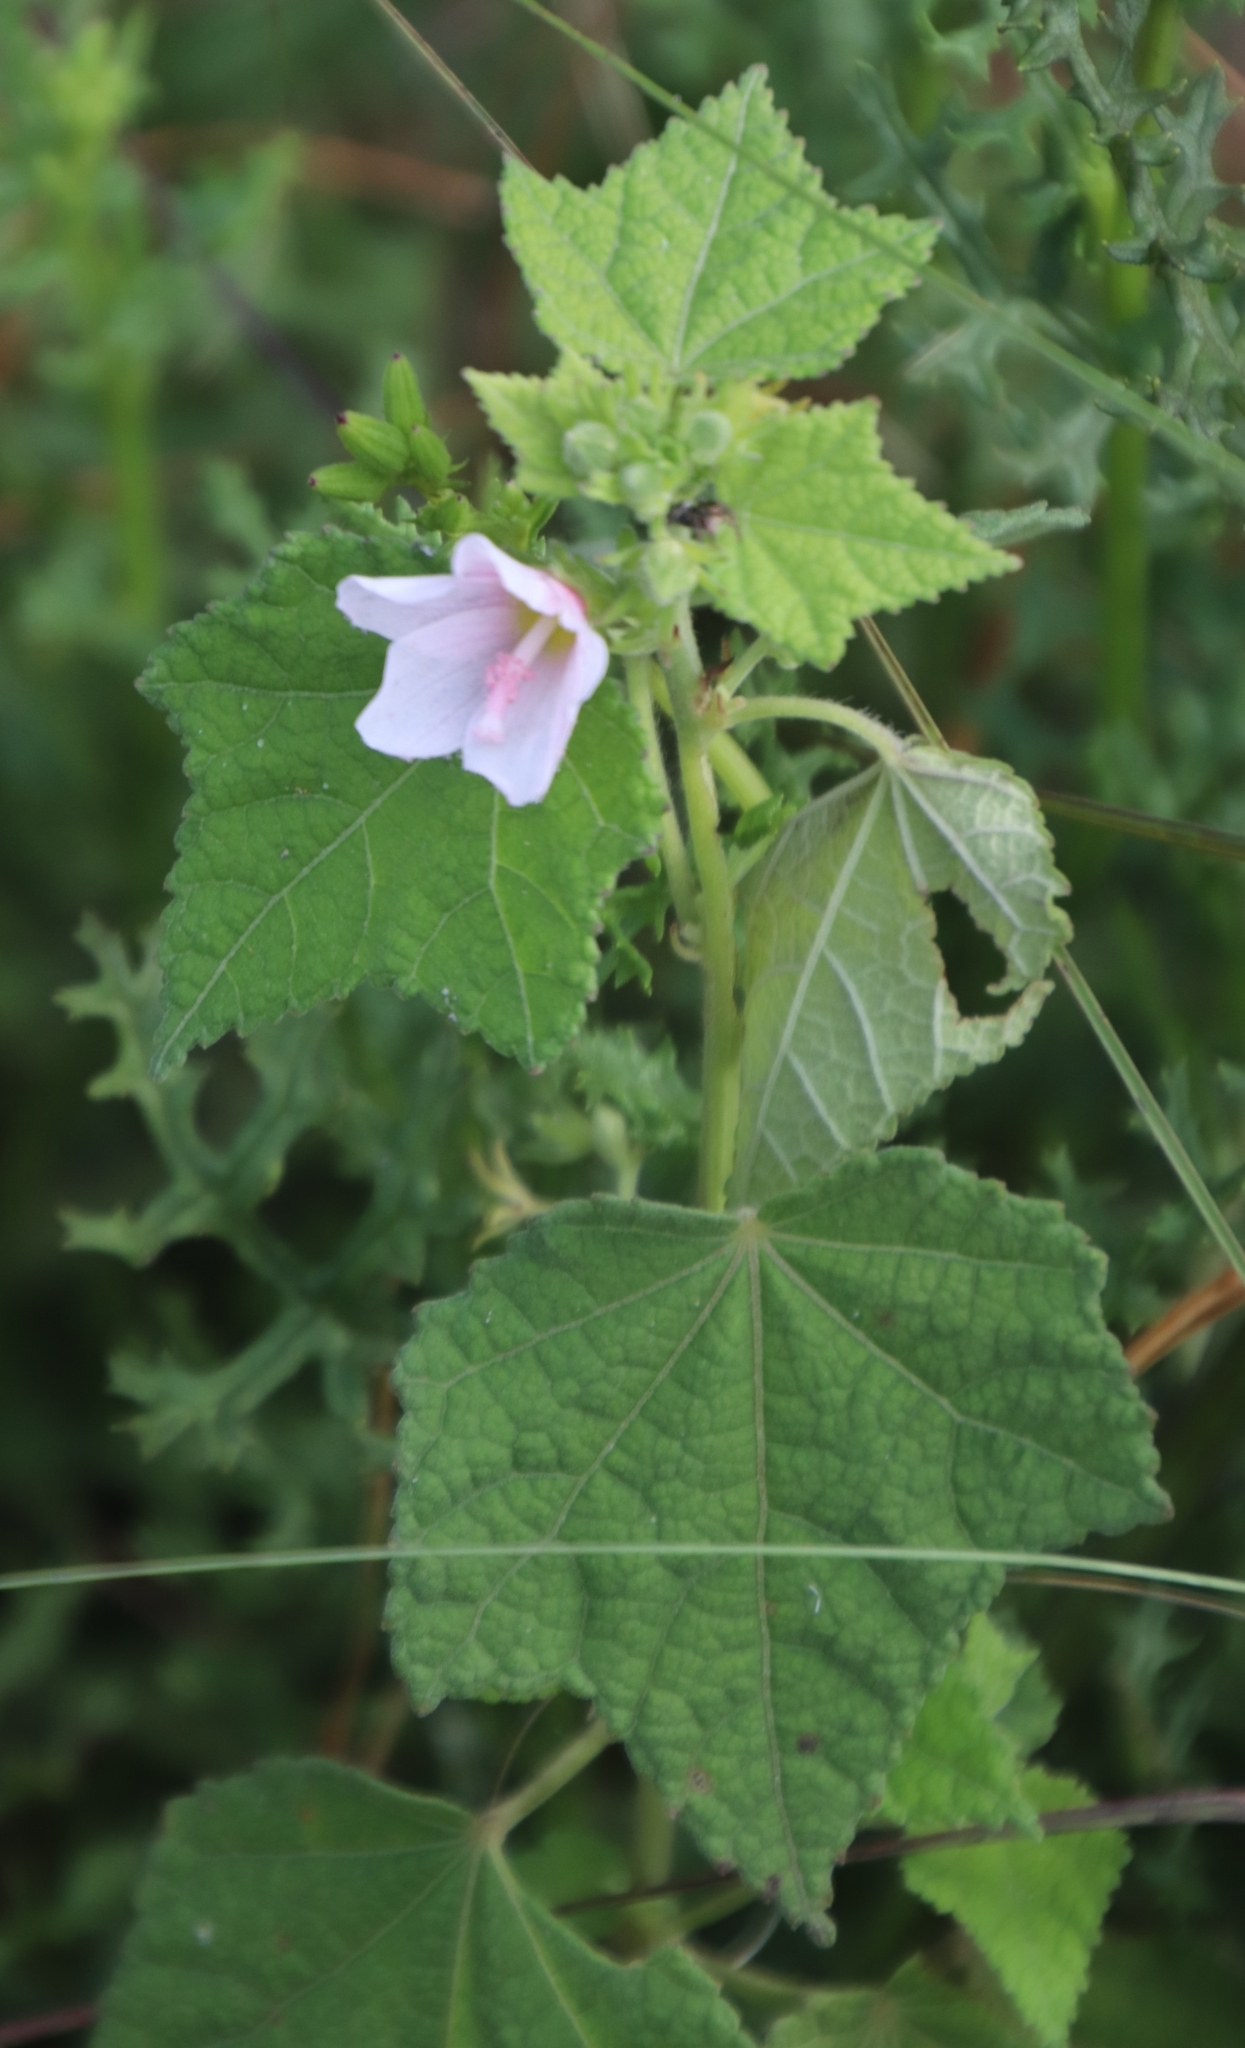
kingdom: Plantae
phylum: Tracheophyta
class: Magnoliopsida
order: Malvales
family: Malvaceae
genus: Pavonia
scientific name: Pavonia columella
